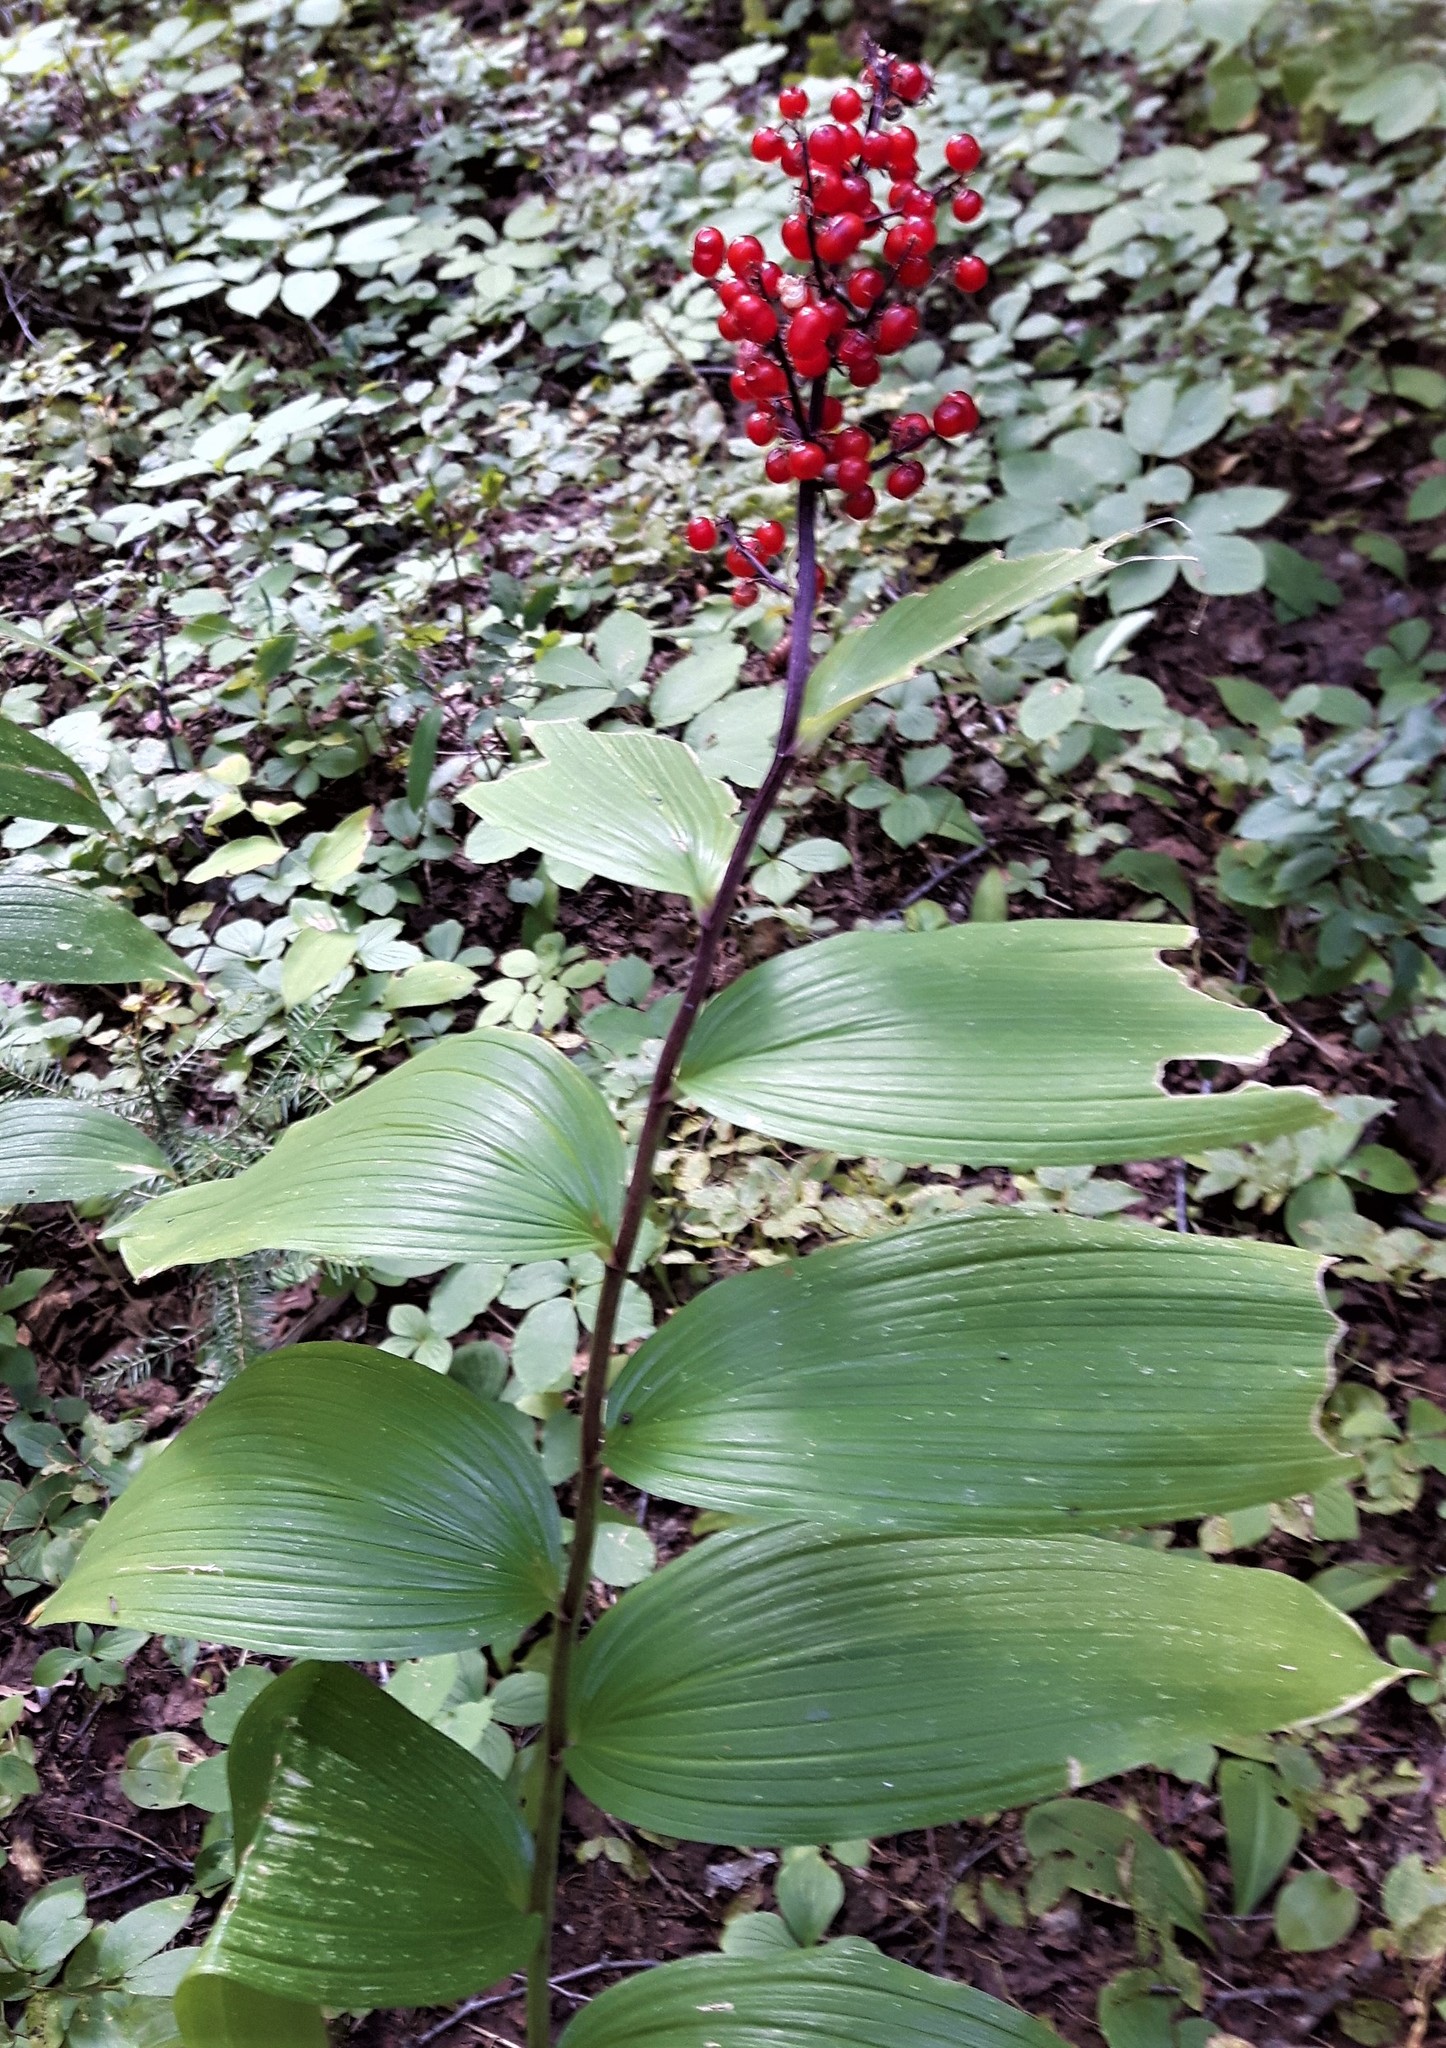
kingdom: Plantae
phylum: Tracheophyta
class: Liliopsida
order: Asparagales
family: Asparagaceae
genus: Maianthemum
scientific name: Maianthemum racemosum
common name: False spikenard
